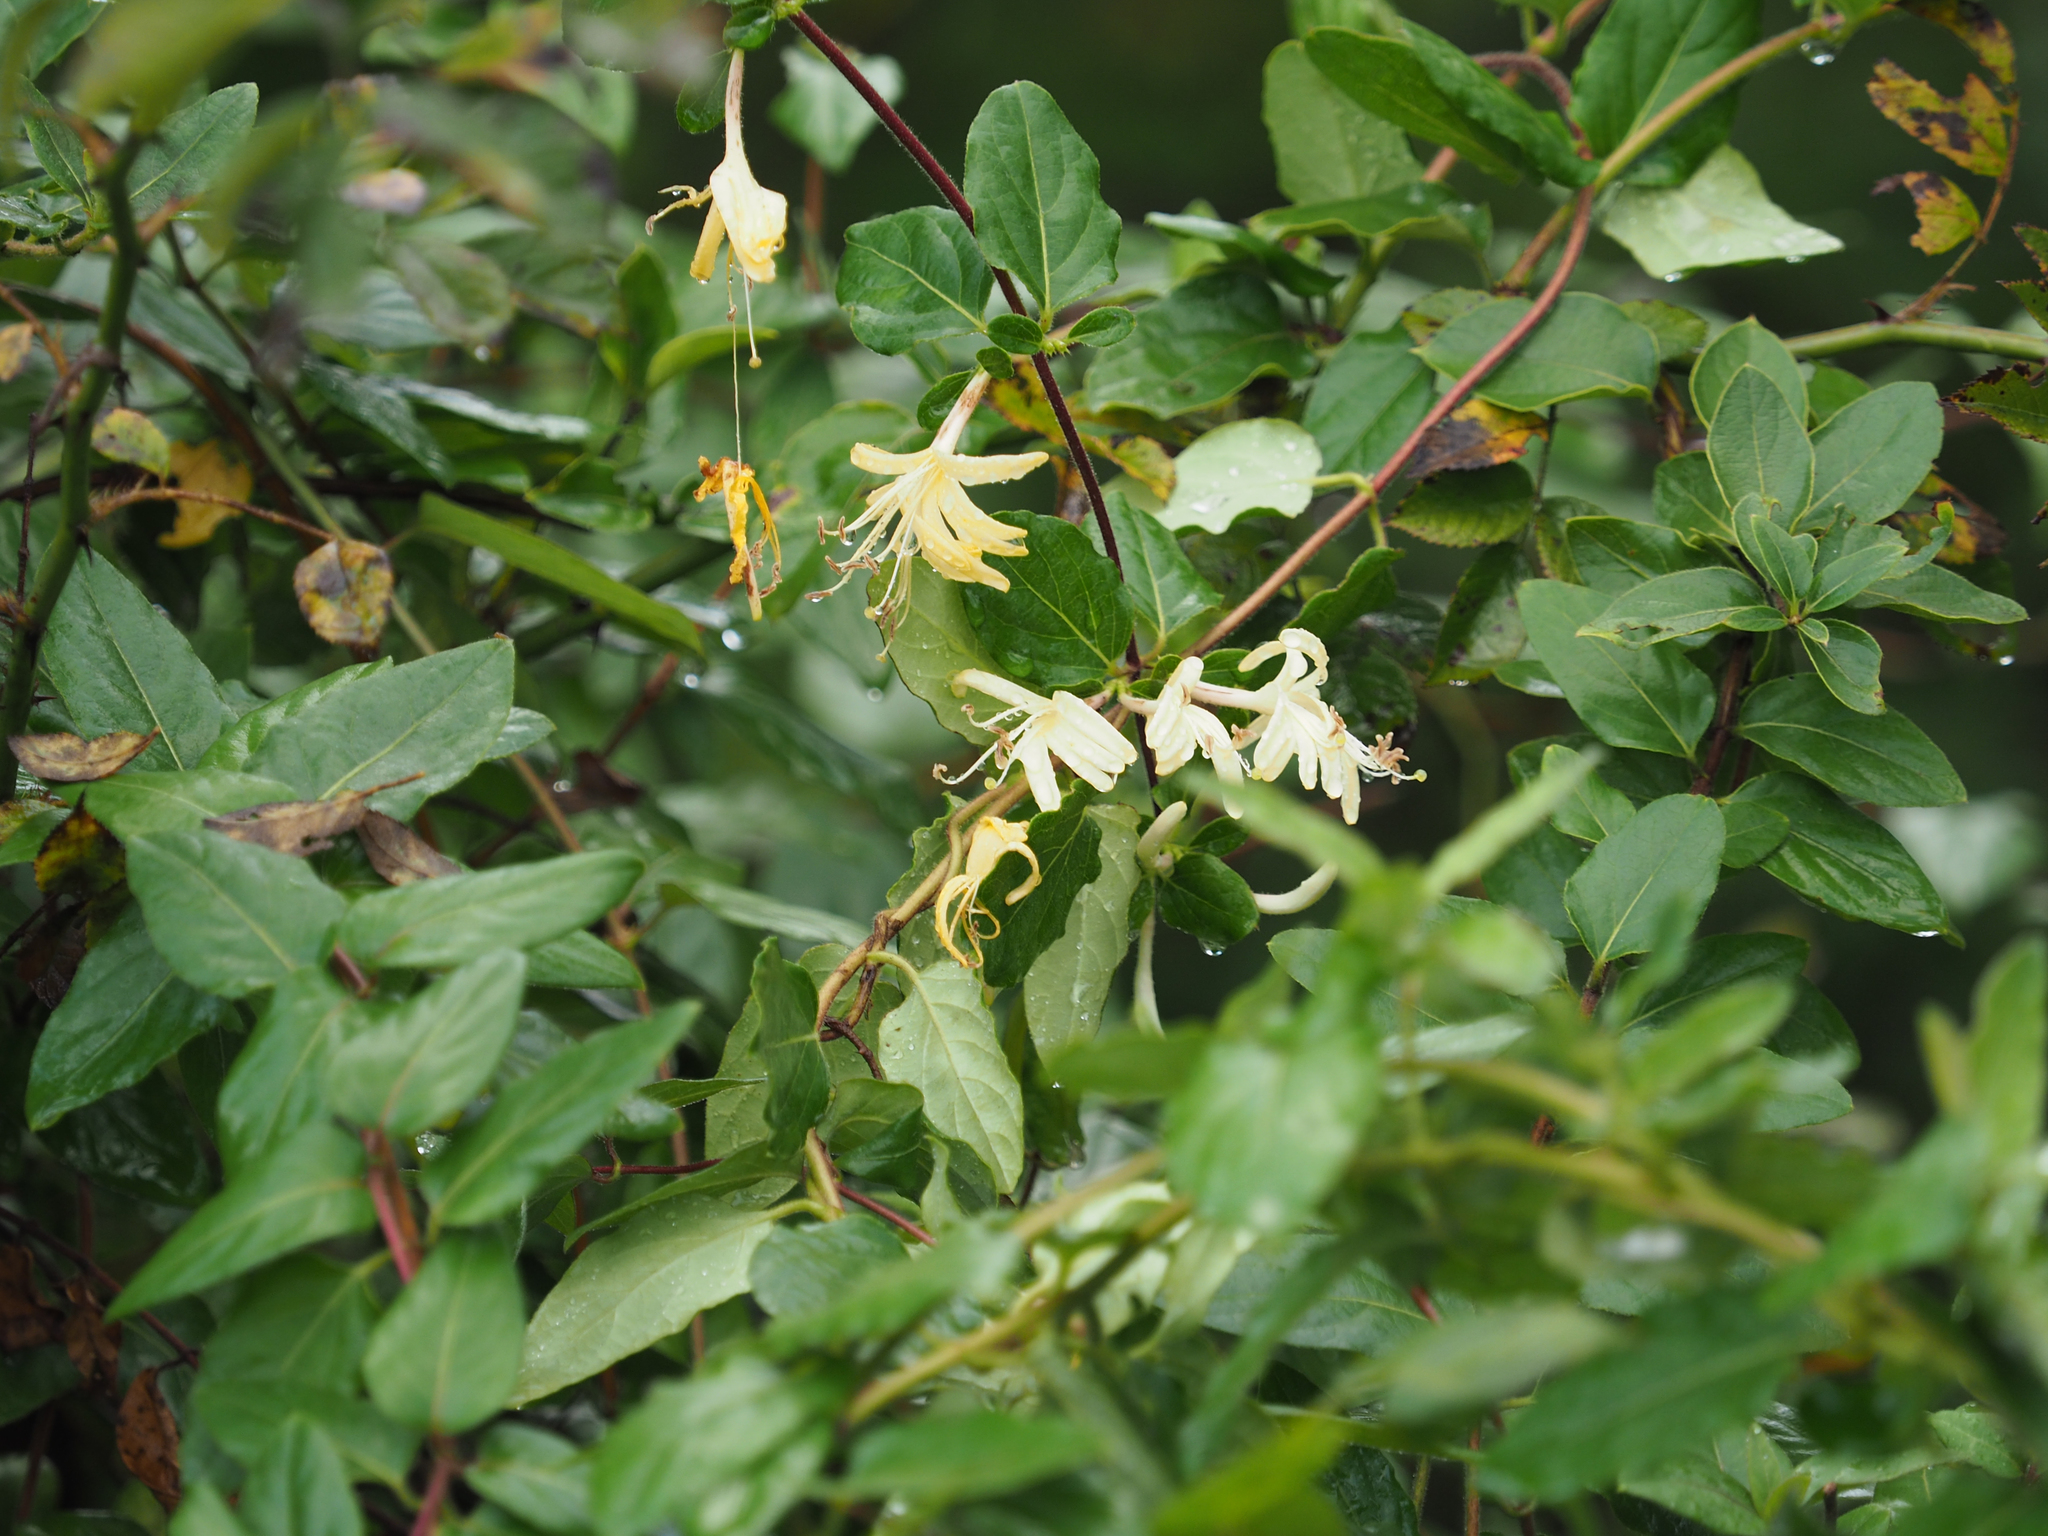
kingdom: Plantae
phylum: Tracheophyta
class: Magnoliopsida
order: Dipsacales
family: Caprifoliaceae
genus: Lonicera
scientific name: Lonicera japonica
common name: Japanese honeysuckle
